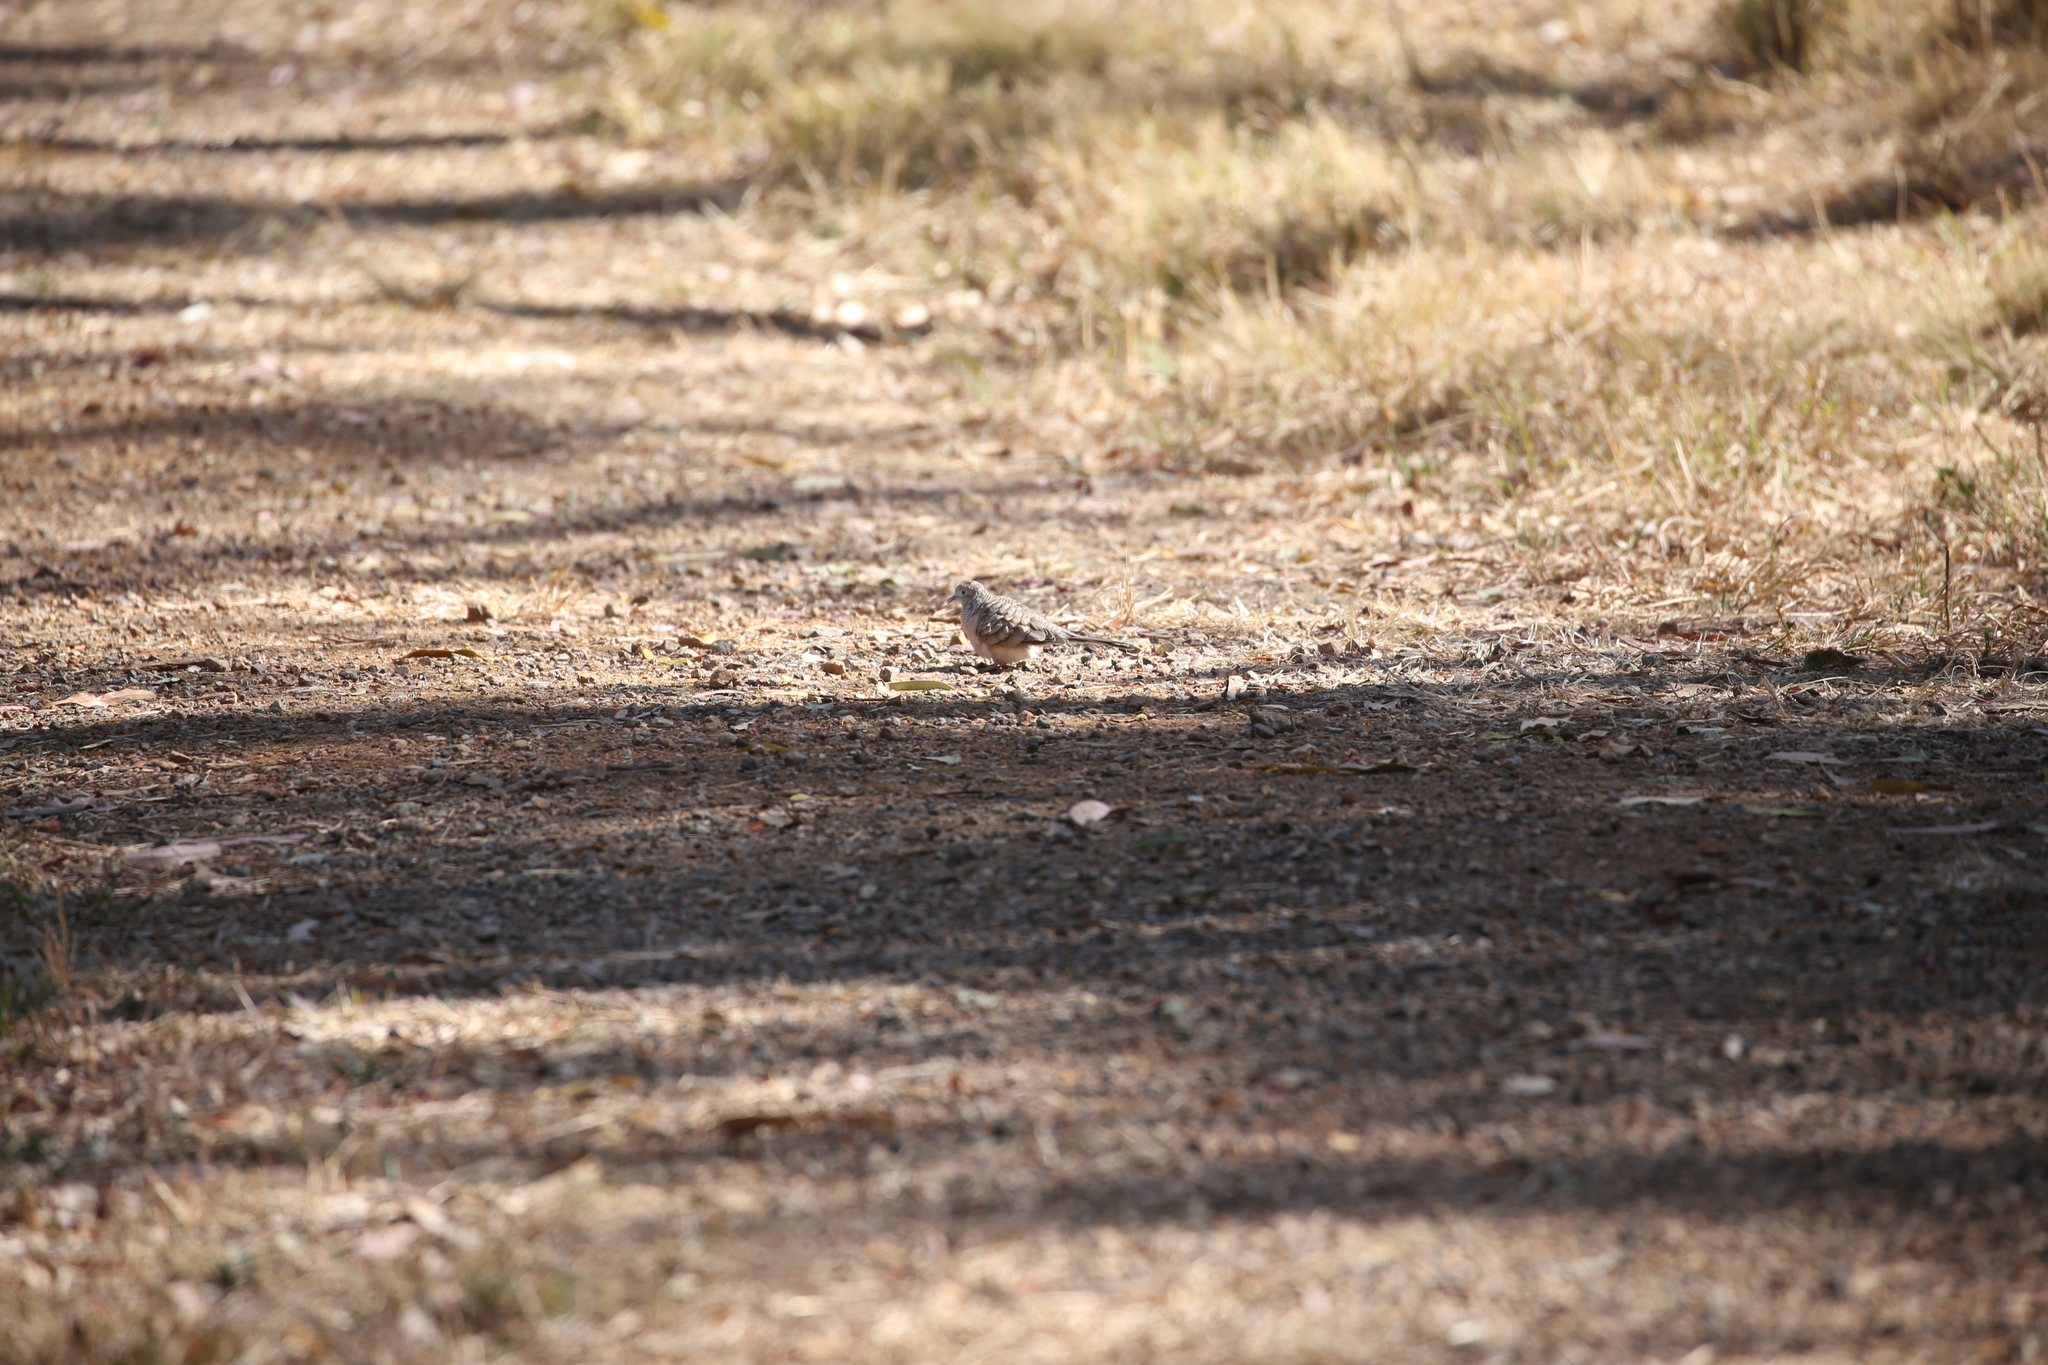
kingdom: Animalia
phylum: Chordata
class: Aves
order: Columbiformes
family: Columbidae
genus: Geopelia
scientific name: Geopelia placida
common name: Peaceful dove
